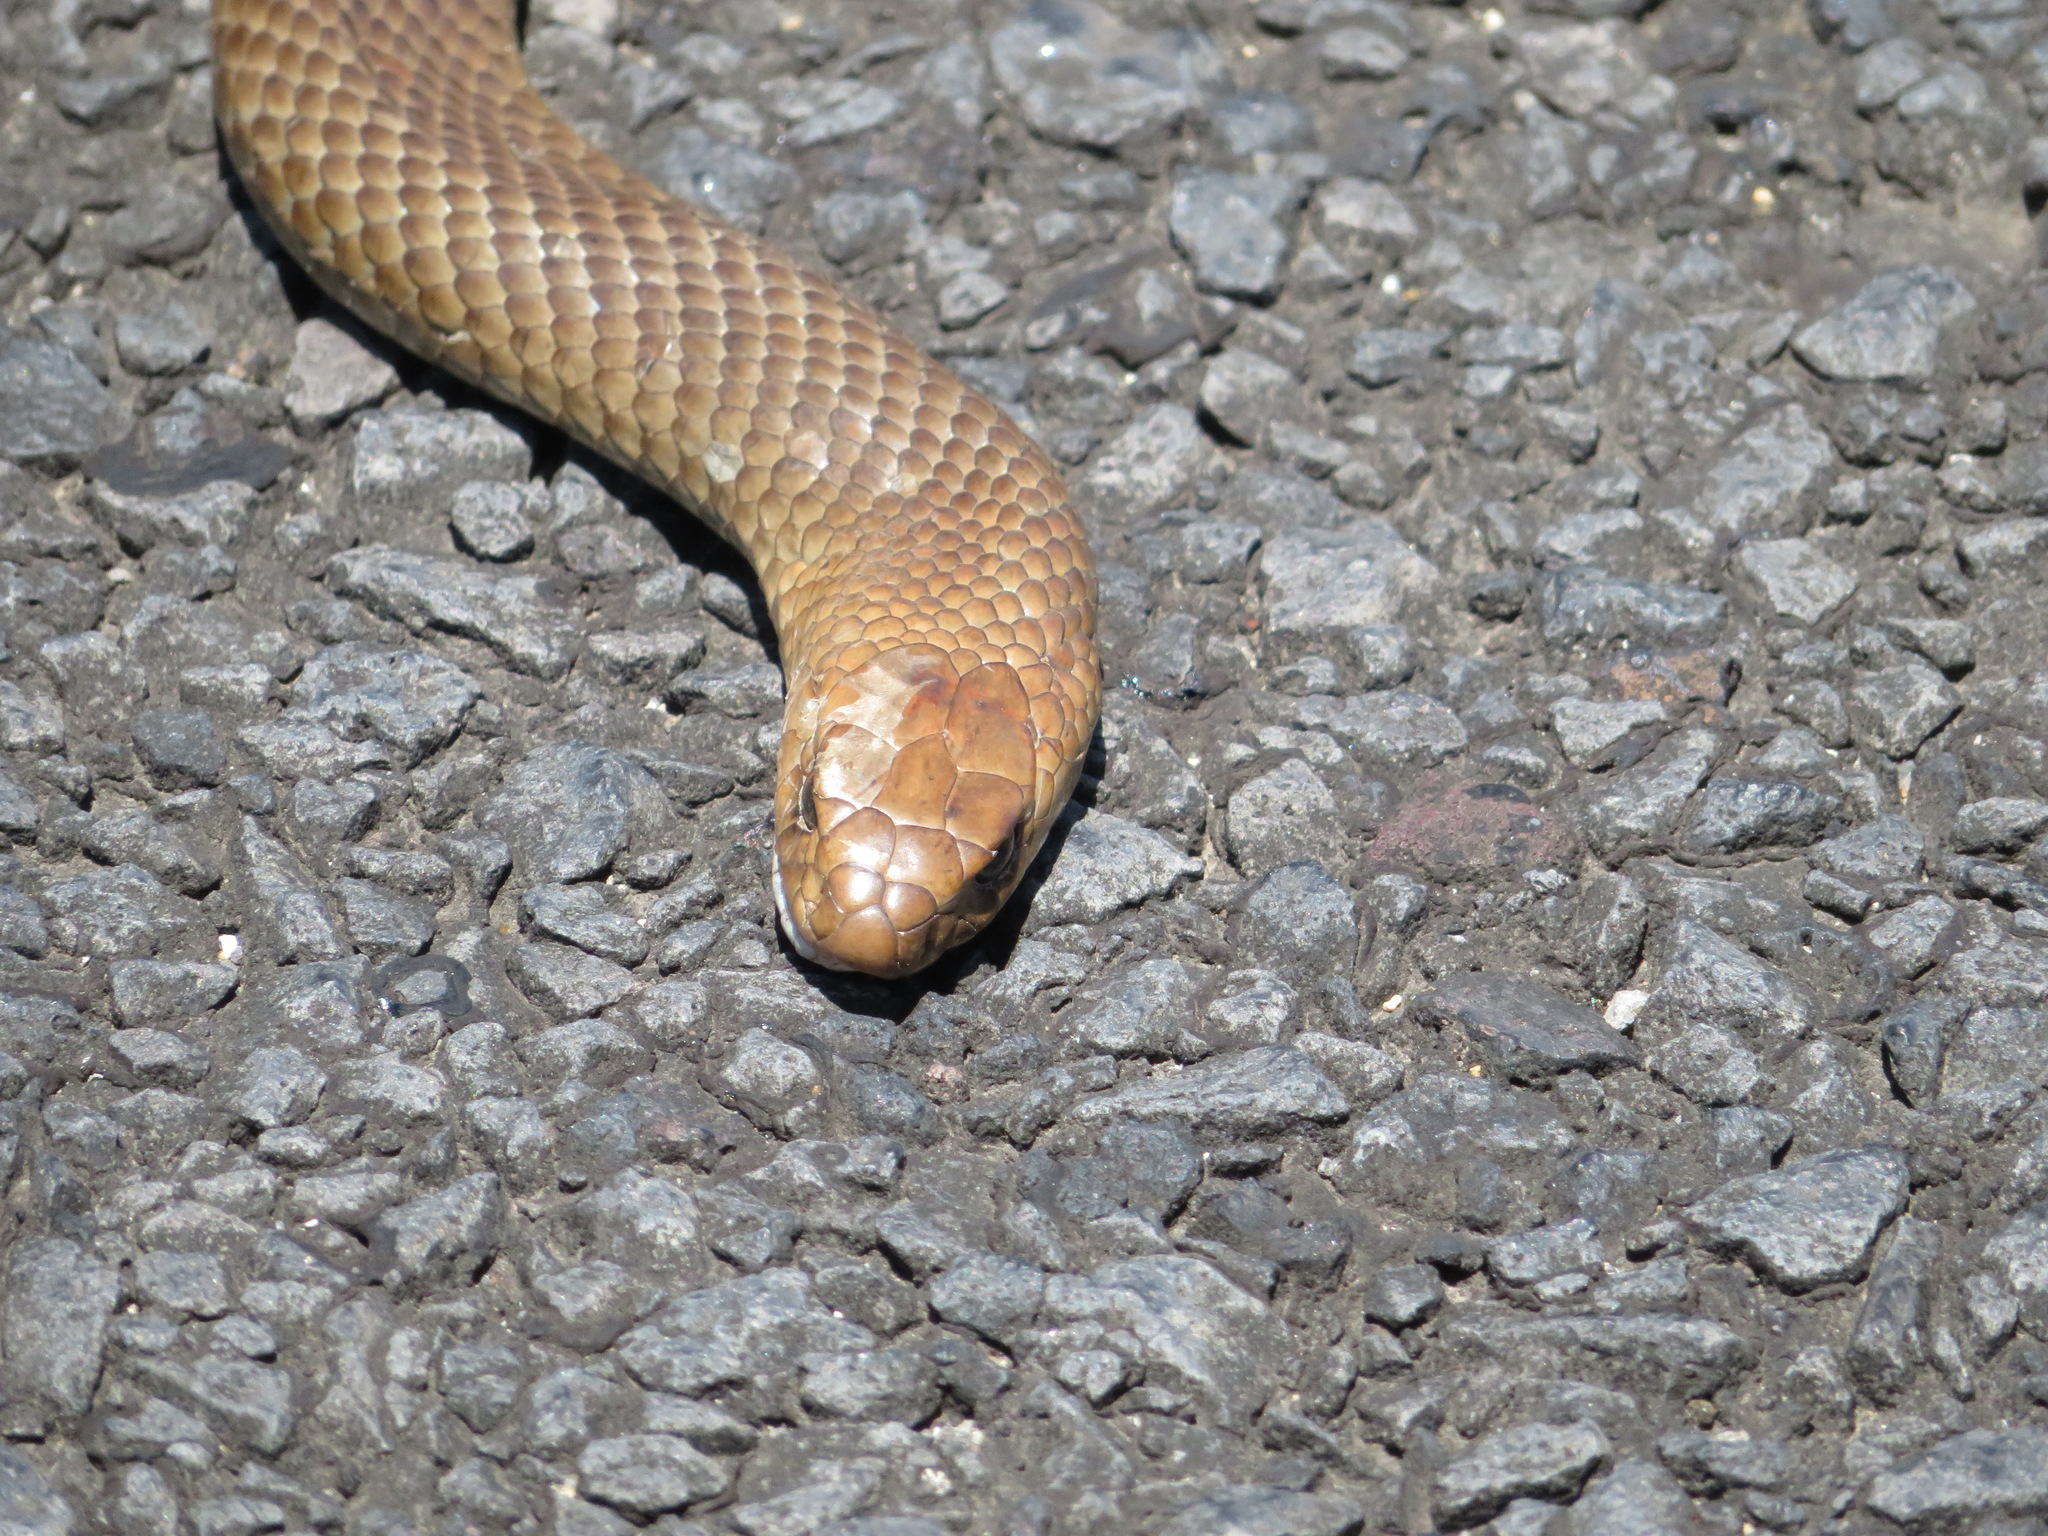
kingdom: Animalia
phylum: Chordata
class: Squamata
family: Elapidae
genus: Pseudonaja
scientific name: Pseudonaja textilis
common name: Eastern brown snake
